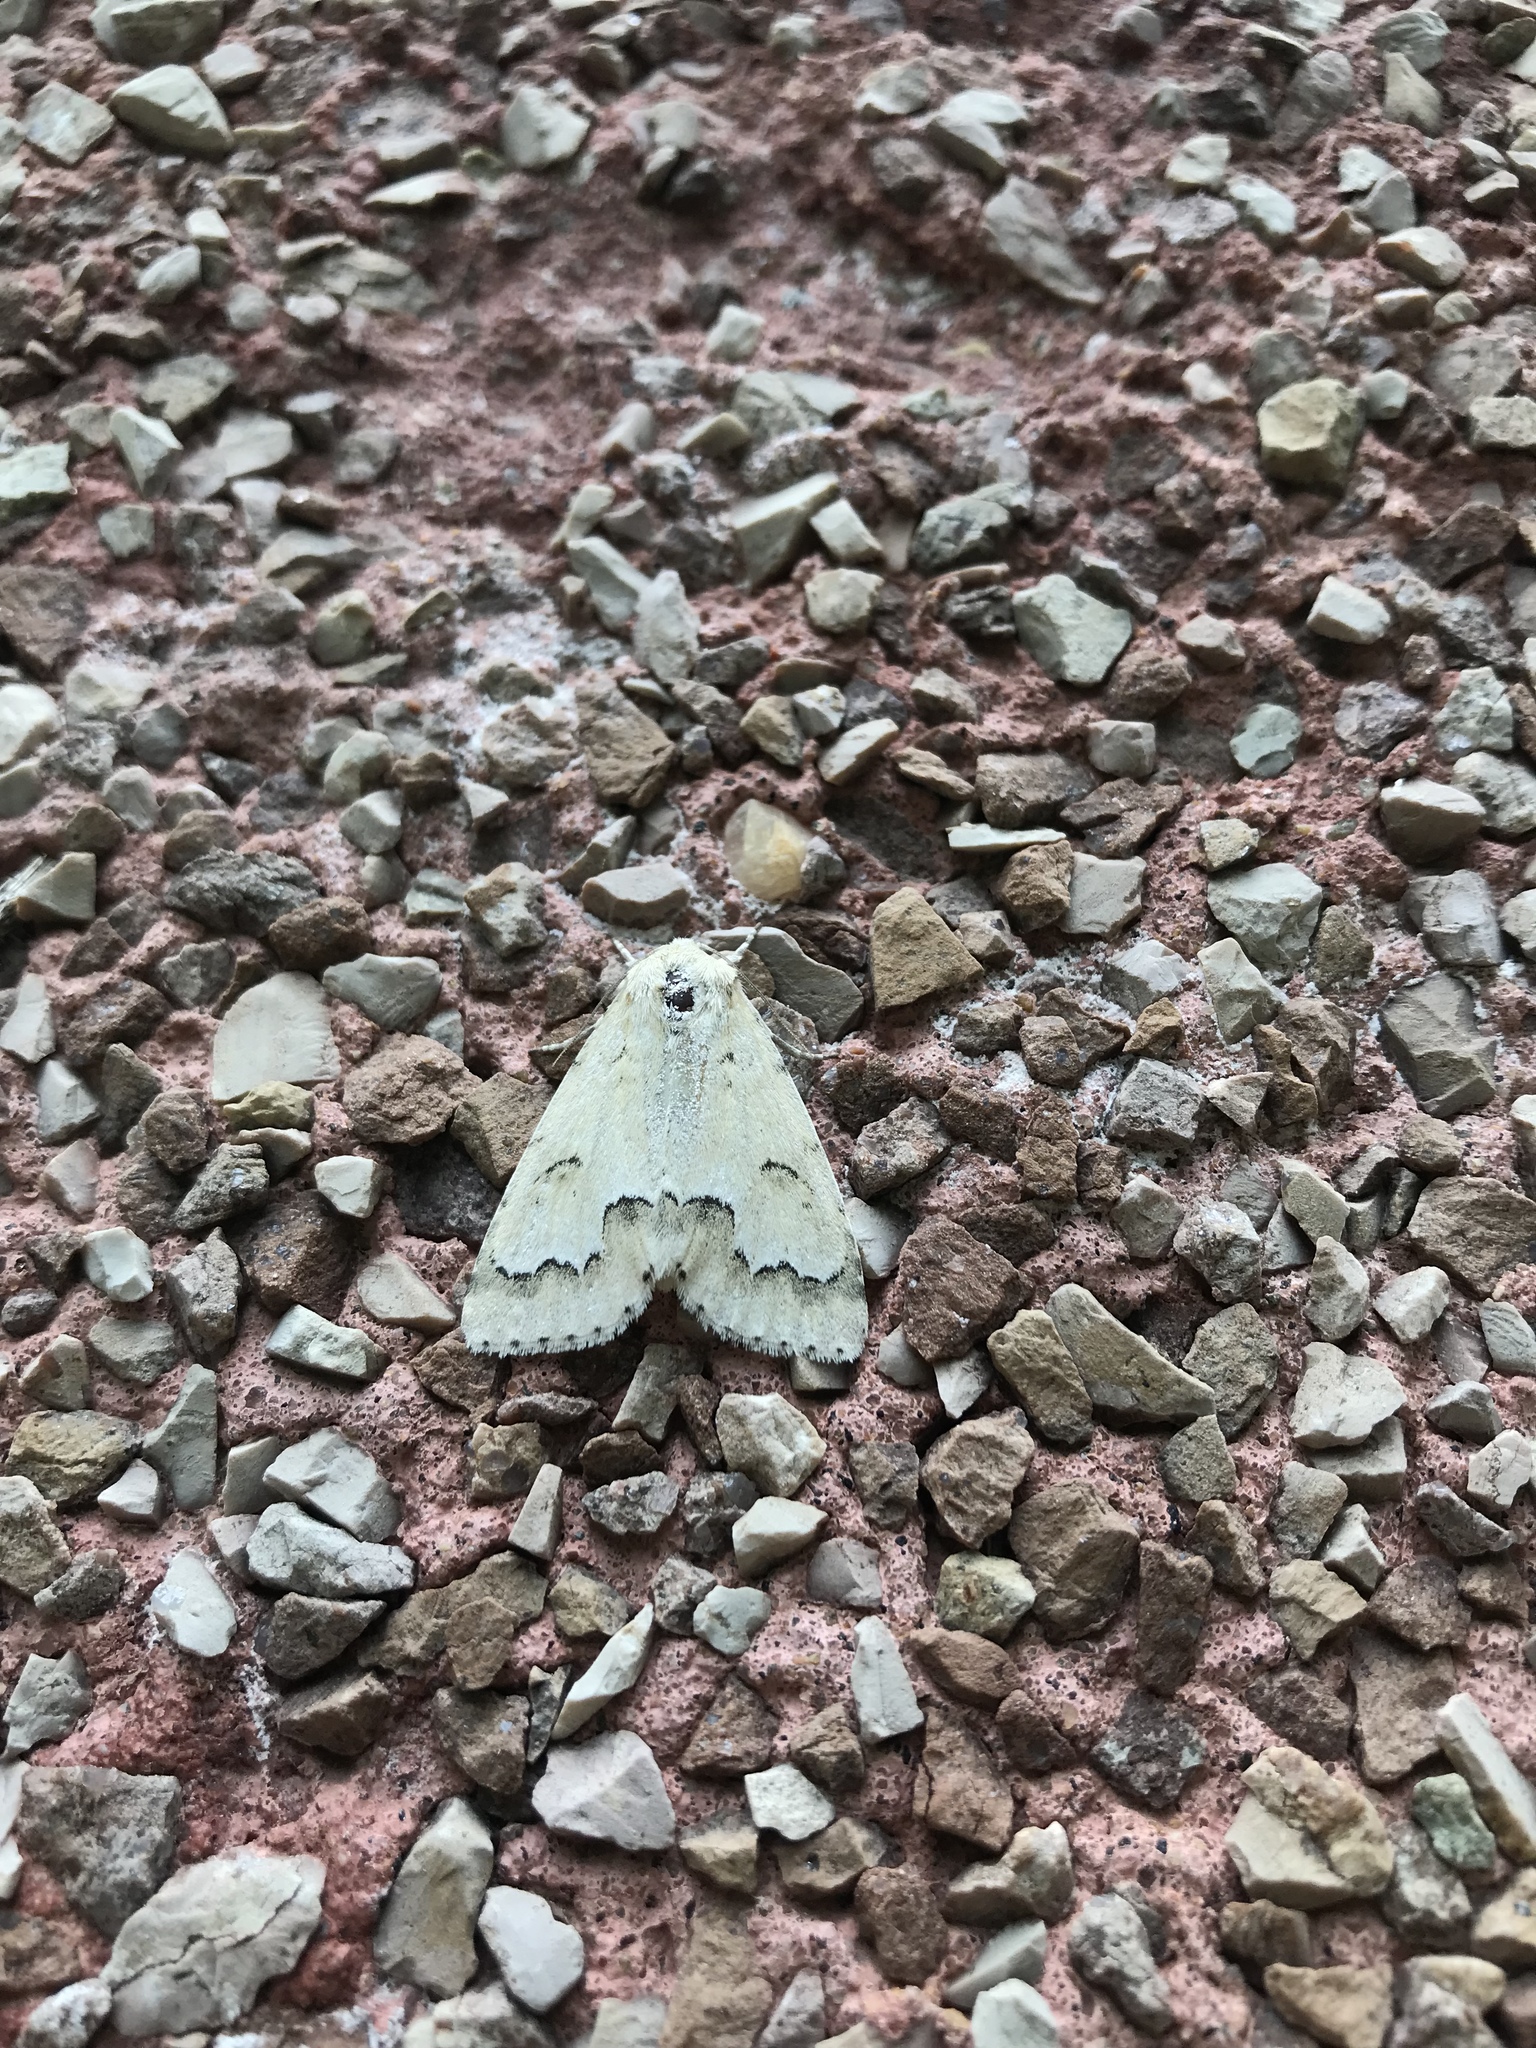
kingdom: Animalia
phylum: Arthropoda
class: Insecta
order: Lepidoptera
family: Noctuidae
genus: Acronicta
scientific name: Acronicta innotata
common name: Unmarked dagger
